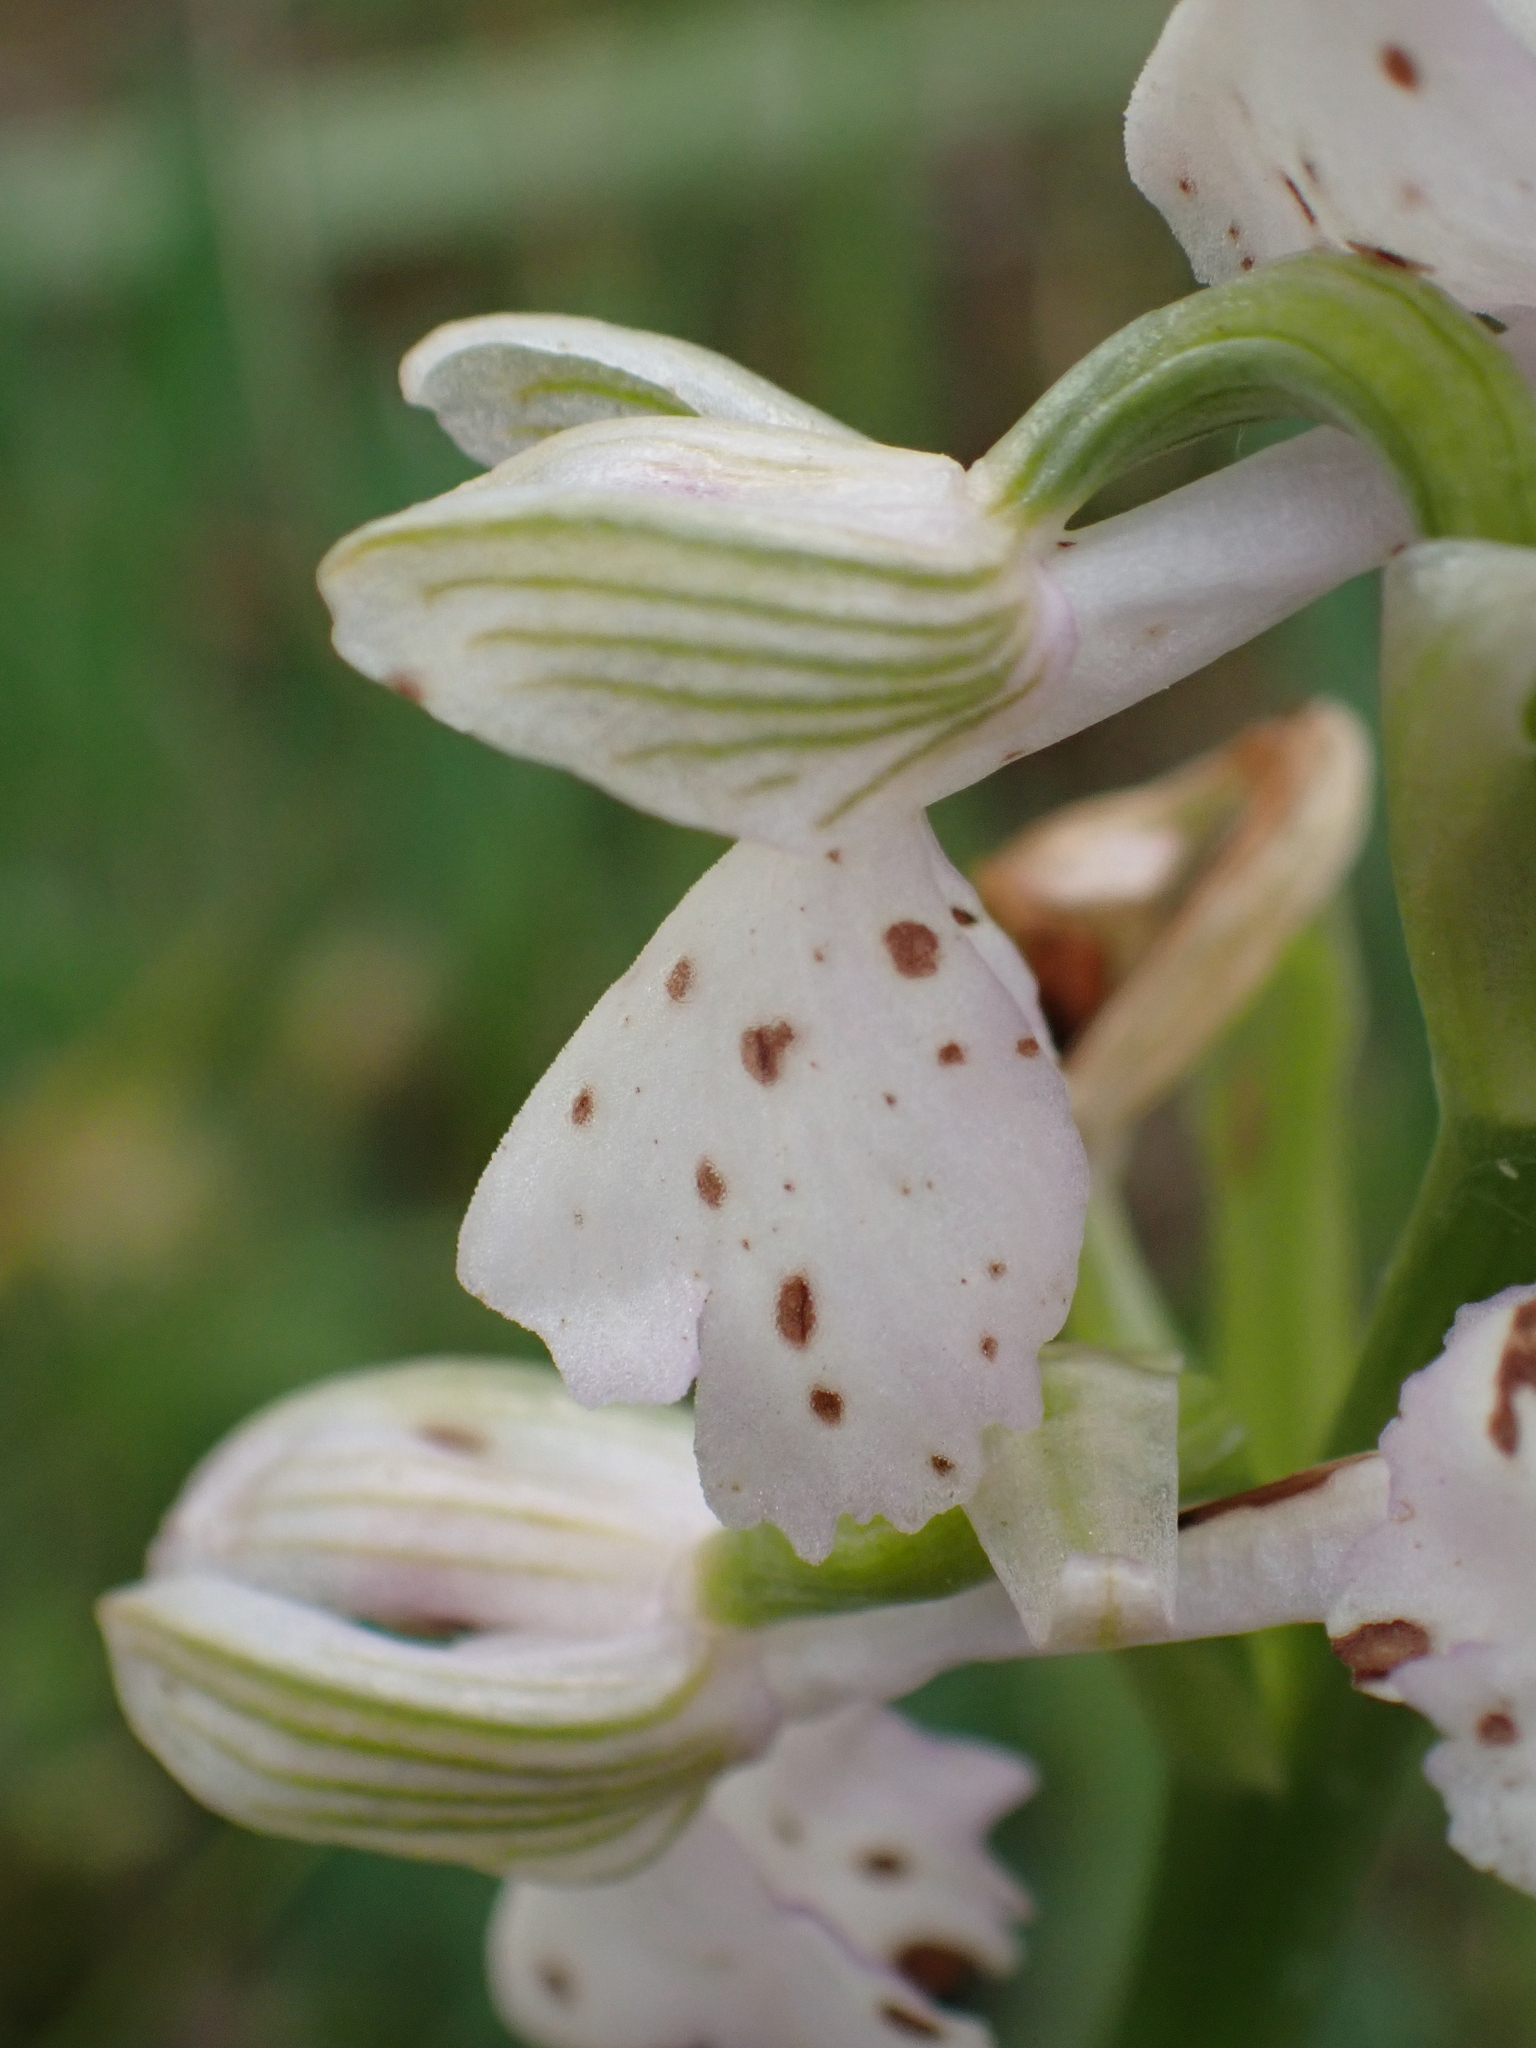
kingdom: Plantae
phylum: Tracheophyta
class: Liliopsida
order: Asparagales
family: Orchidaceae
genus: Anacamptis
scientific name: Anacamptis morio
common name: Green-winged orchid
